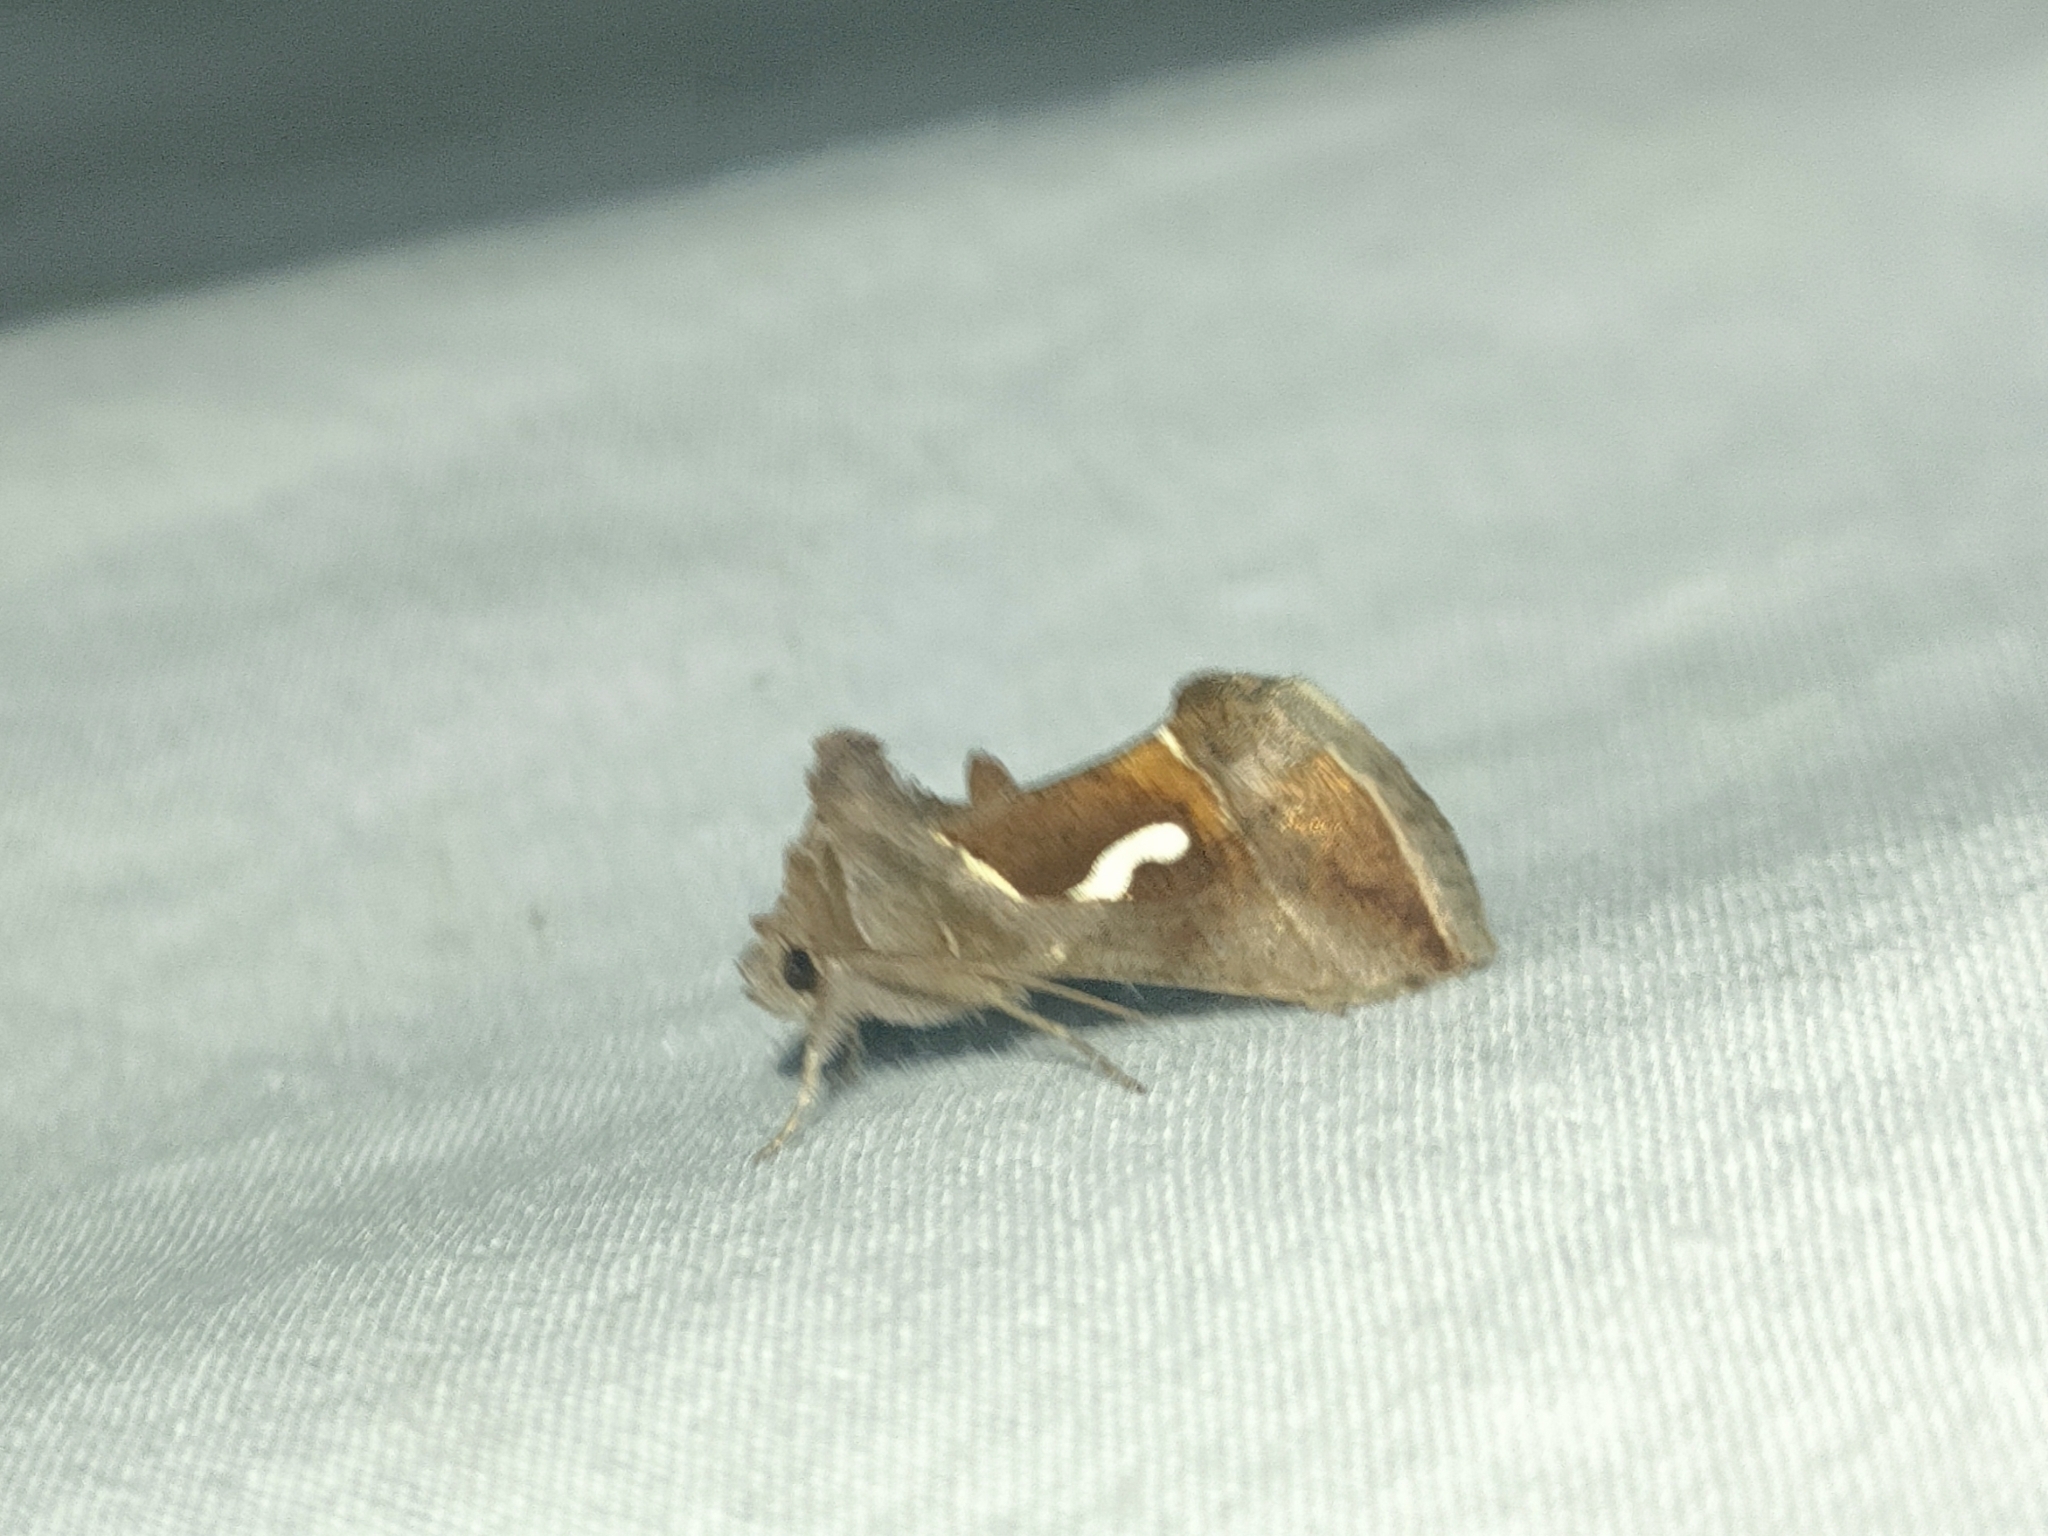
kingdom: Animalia
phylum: Arthropoda
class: Insecta
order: Lepidoptera
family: Noctuidae
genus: Macdunnoughia
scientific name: Macdunnoughia confusa
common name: Dewick's plusia
